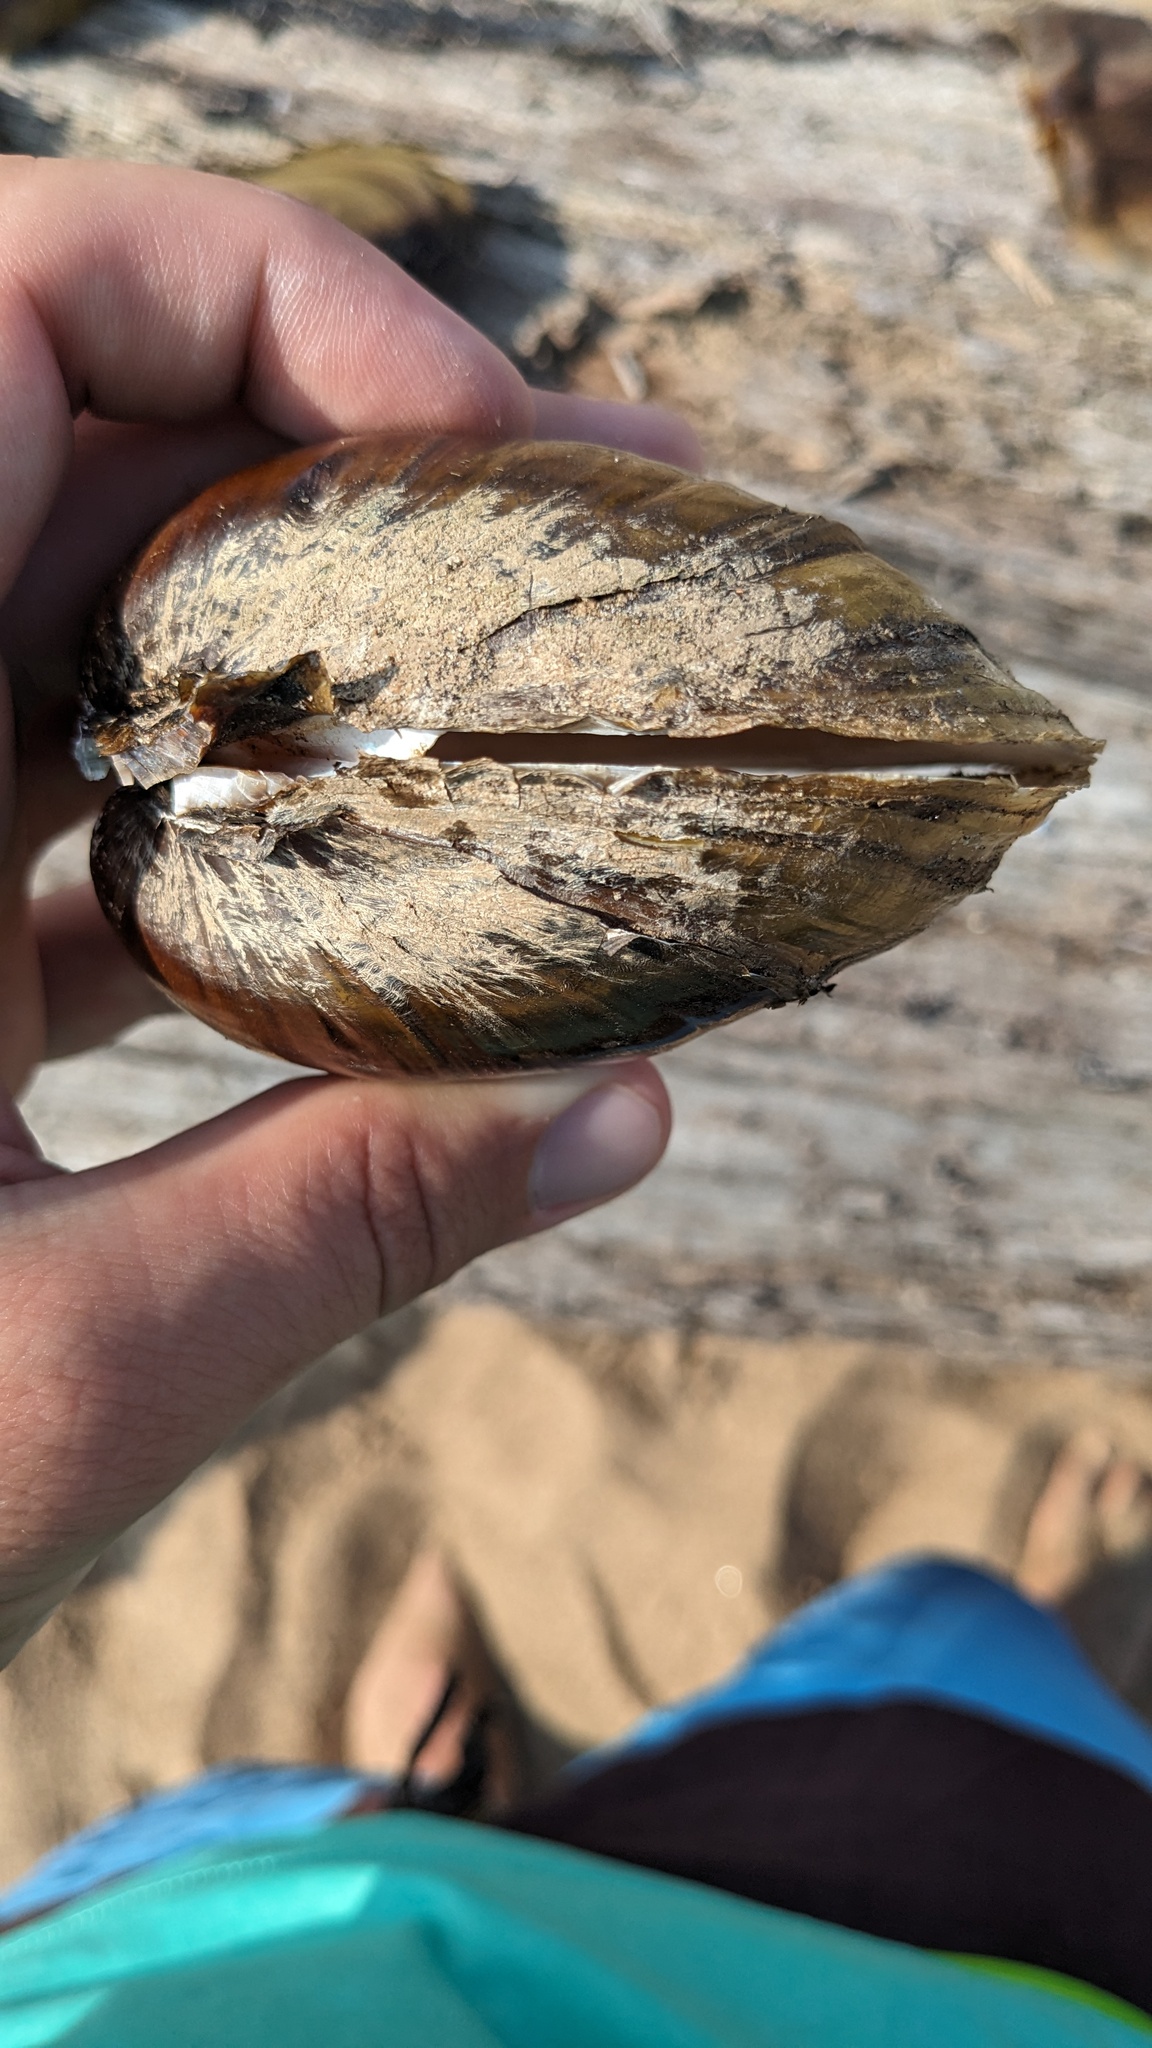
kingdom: Animalia
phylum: Mollusca
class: Bivalvia
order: Unionida
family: Unionidae
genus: Lampsilis
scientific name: Lampsilis cardium
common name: Plain pocketbook
